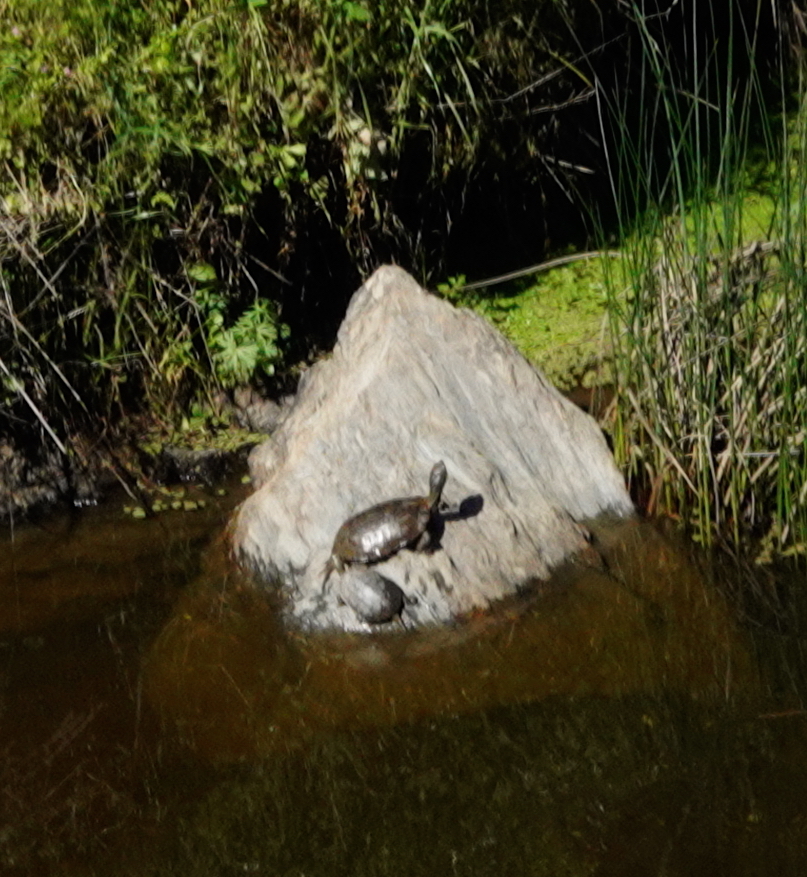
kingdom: Animalia
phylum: Chordata
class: Testudines
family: Geoemydidae
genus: Mauremys
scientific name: Mauremys leprosa
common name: Mediterranean pond turtle
